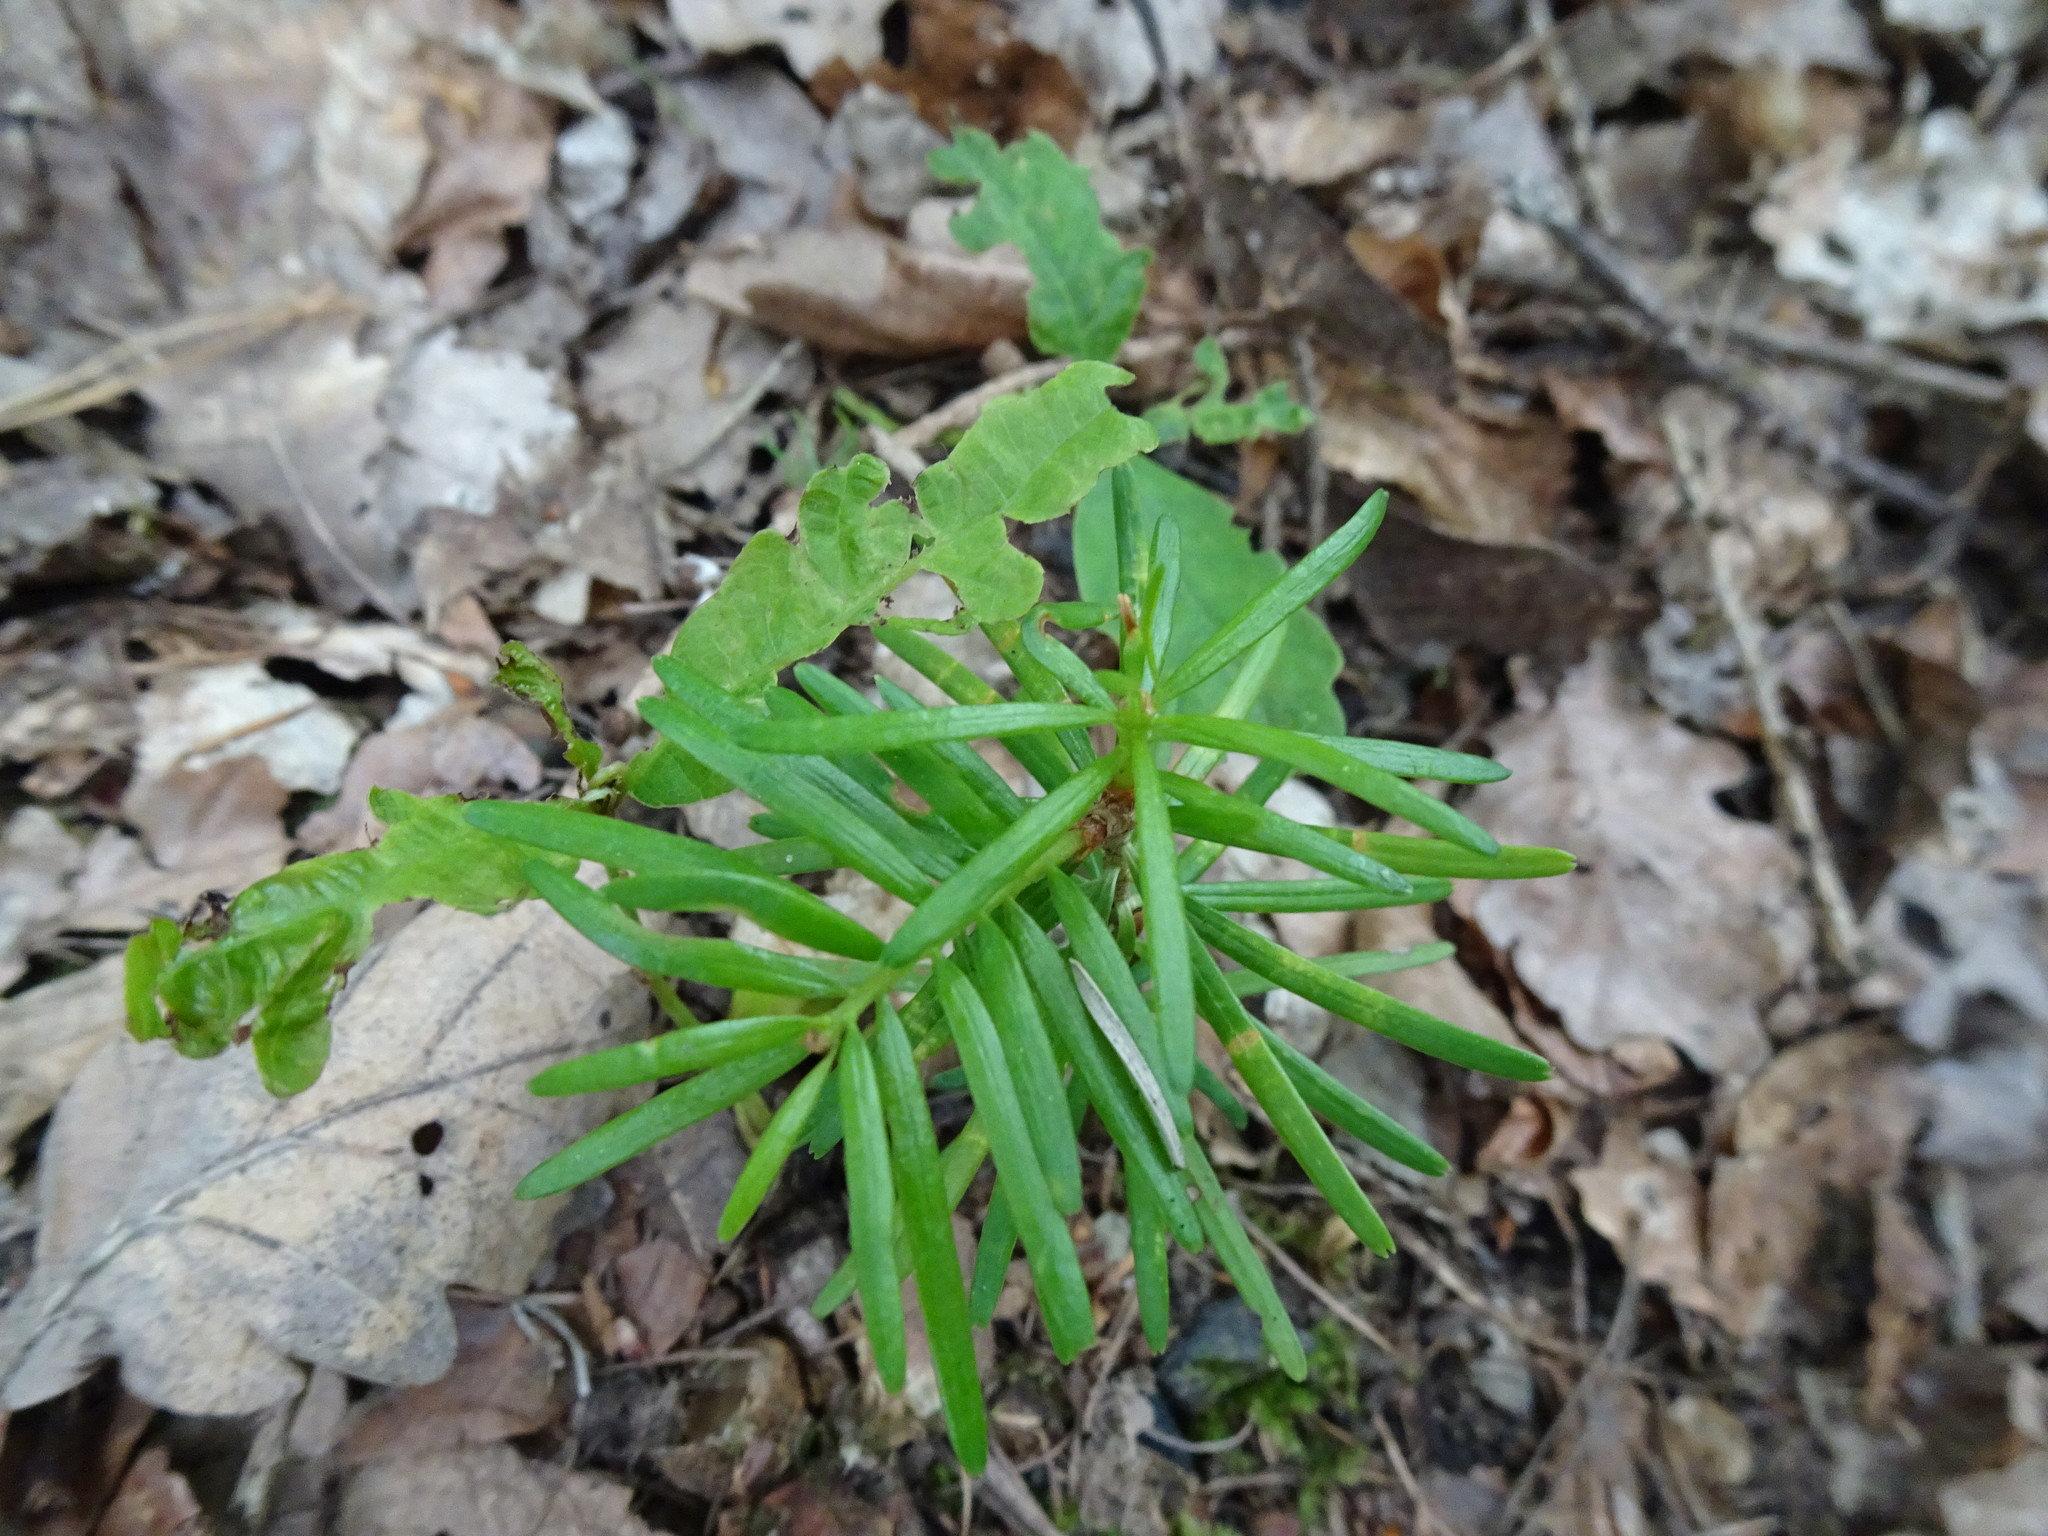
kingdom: Plantae
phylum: Tracheophyta
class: Pinopsida
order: Pinales
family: Taxaceae
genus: Taxus
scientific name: Taxus baccata
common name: Yew
